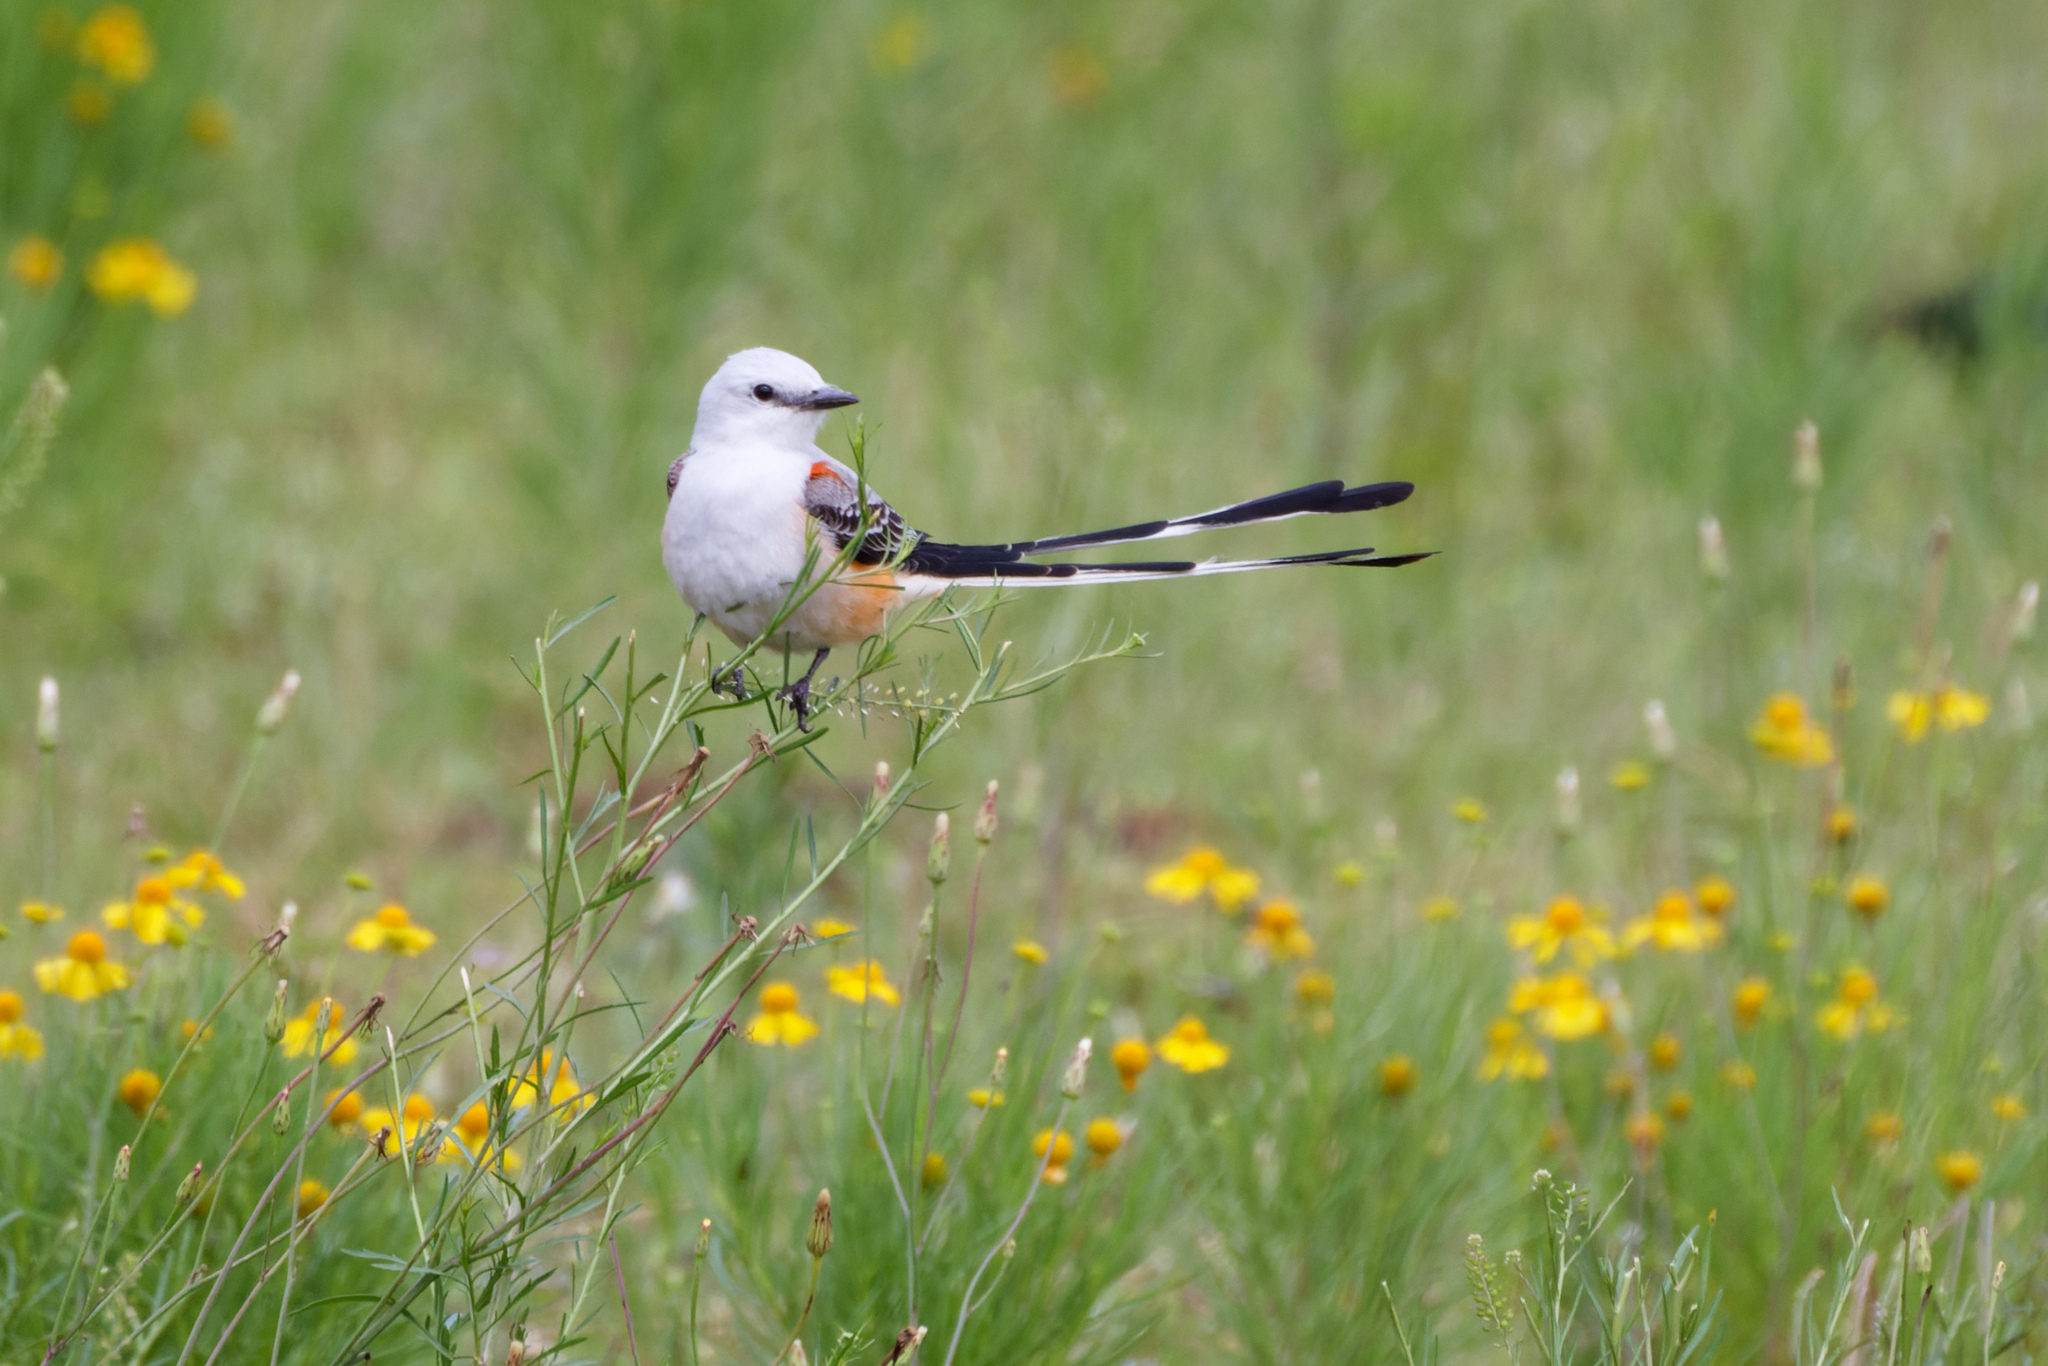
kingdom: Animalia
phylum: Chordata
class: Aves
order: Passeriformes
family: Tyrannidae
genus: Tyrannus
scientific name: Tyrannus forficatus
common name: Scissor-tailed flycatcher
